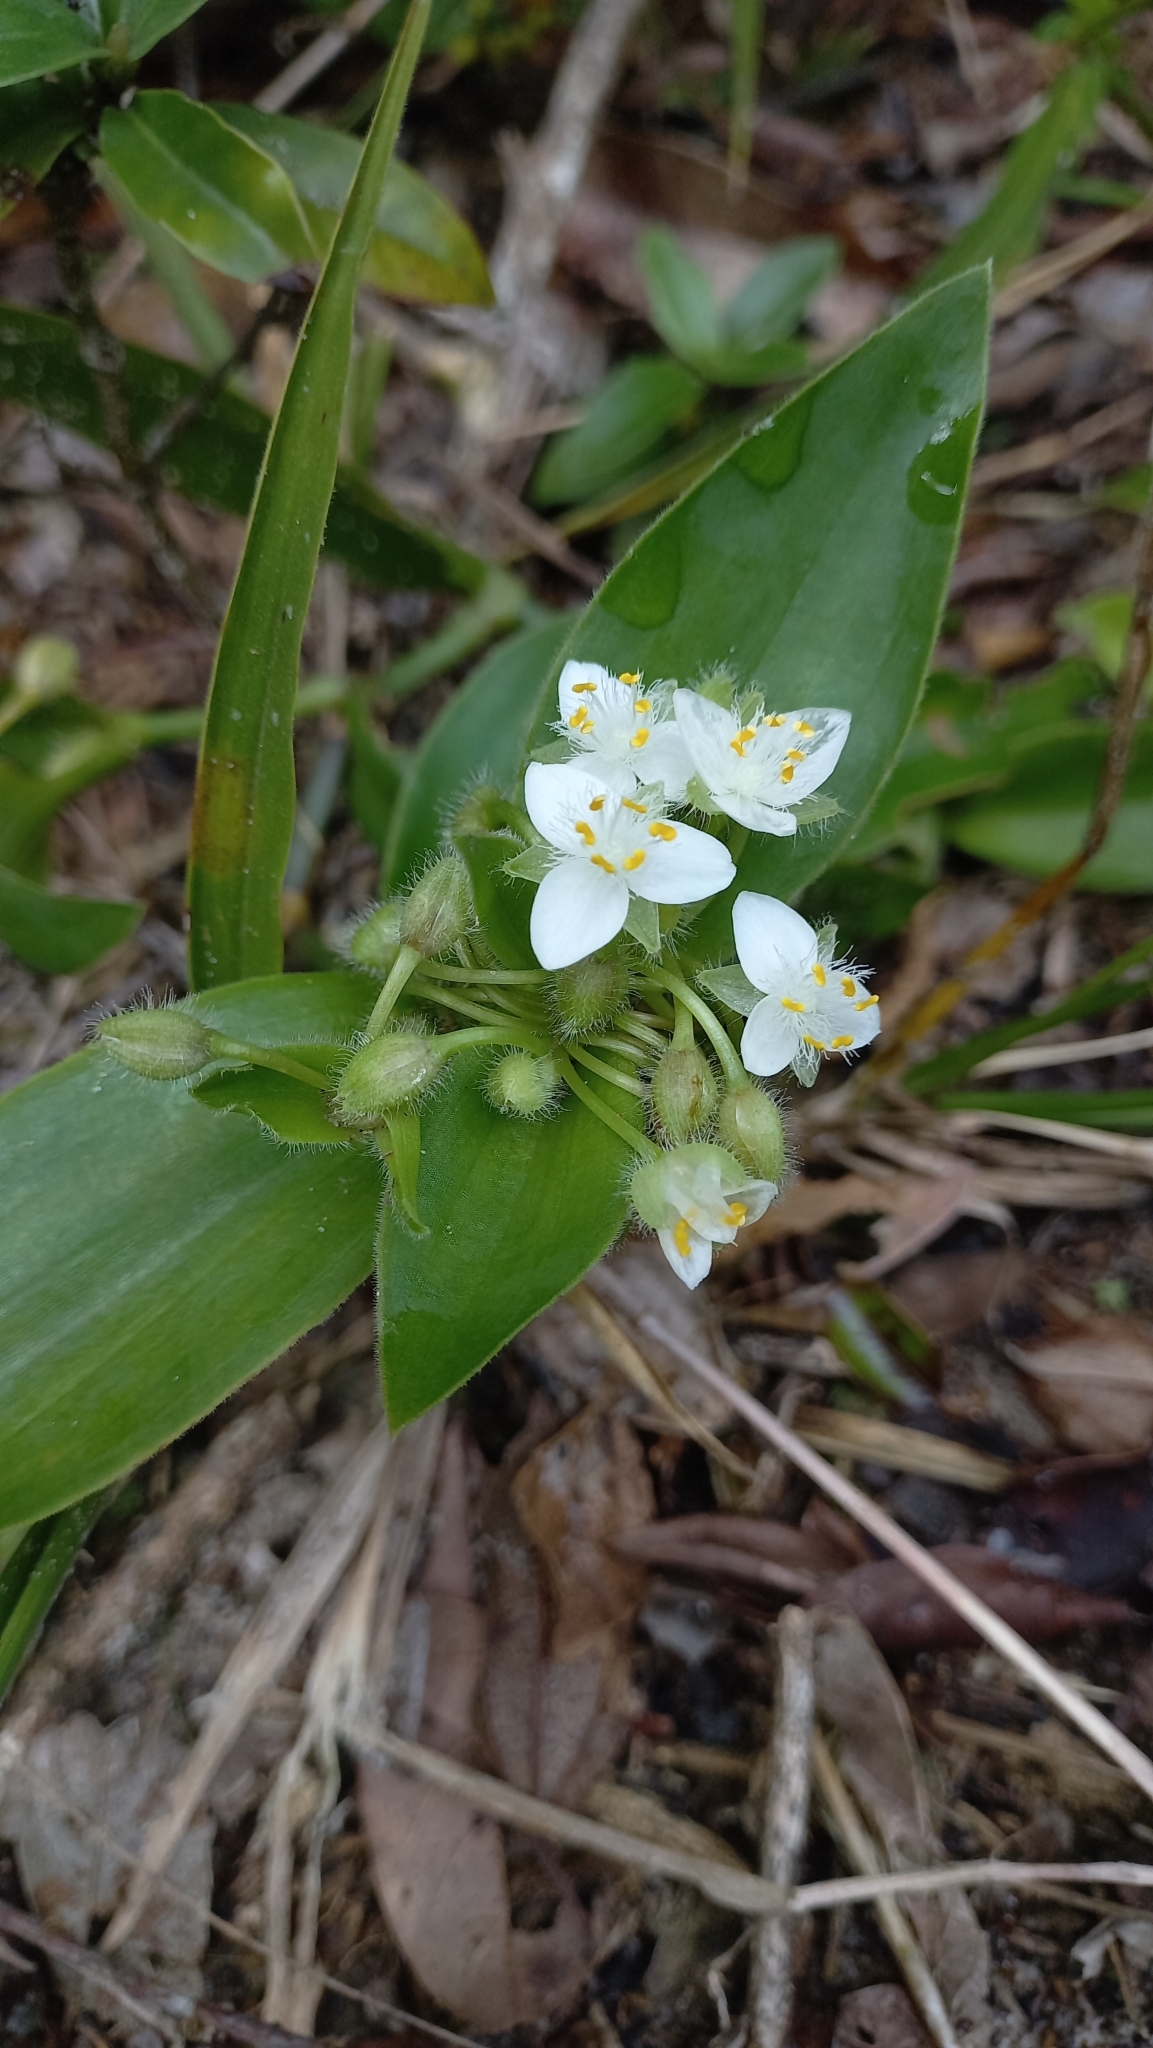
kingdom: Plantae
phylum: Tracheophyta
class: Liliopsida
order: Commelinales
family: Commelinaceae
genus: Tradescantia
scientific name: Tradescantia catharinensis
